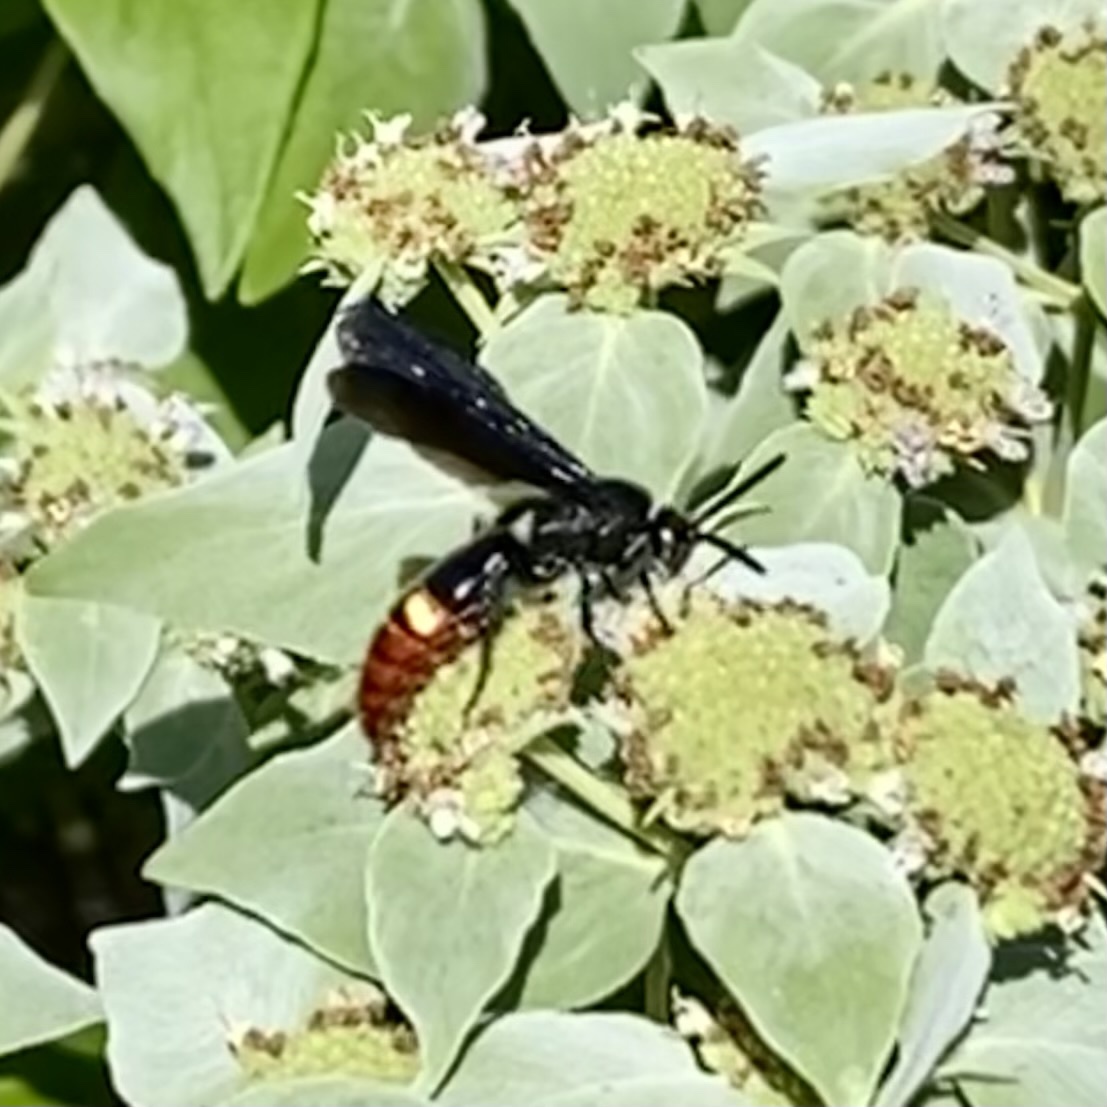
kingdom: Animalia
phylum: Arthropoda
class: Insecta
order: Hymenoptera
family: Scoliidae
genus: Scolia
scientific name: Scolia dubia
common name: Blue-winged scoliid wasp
